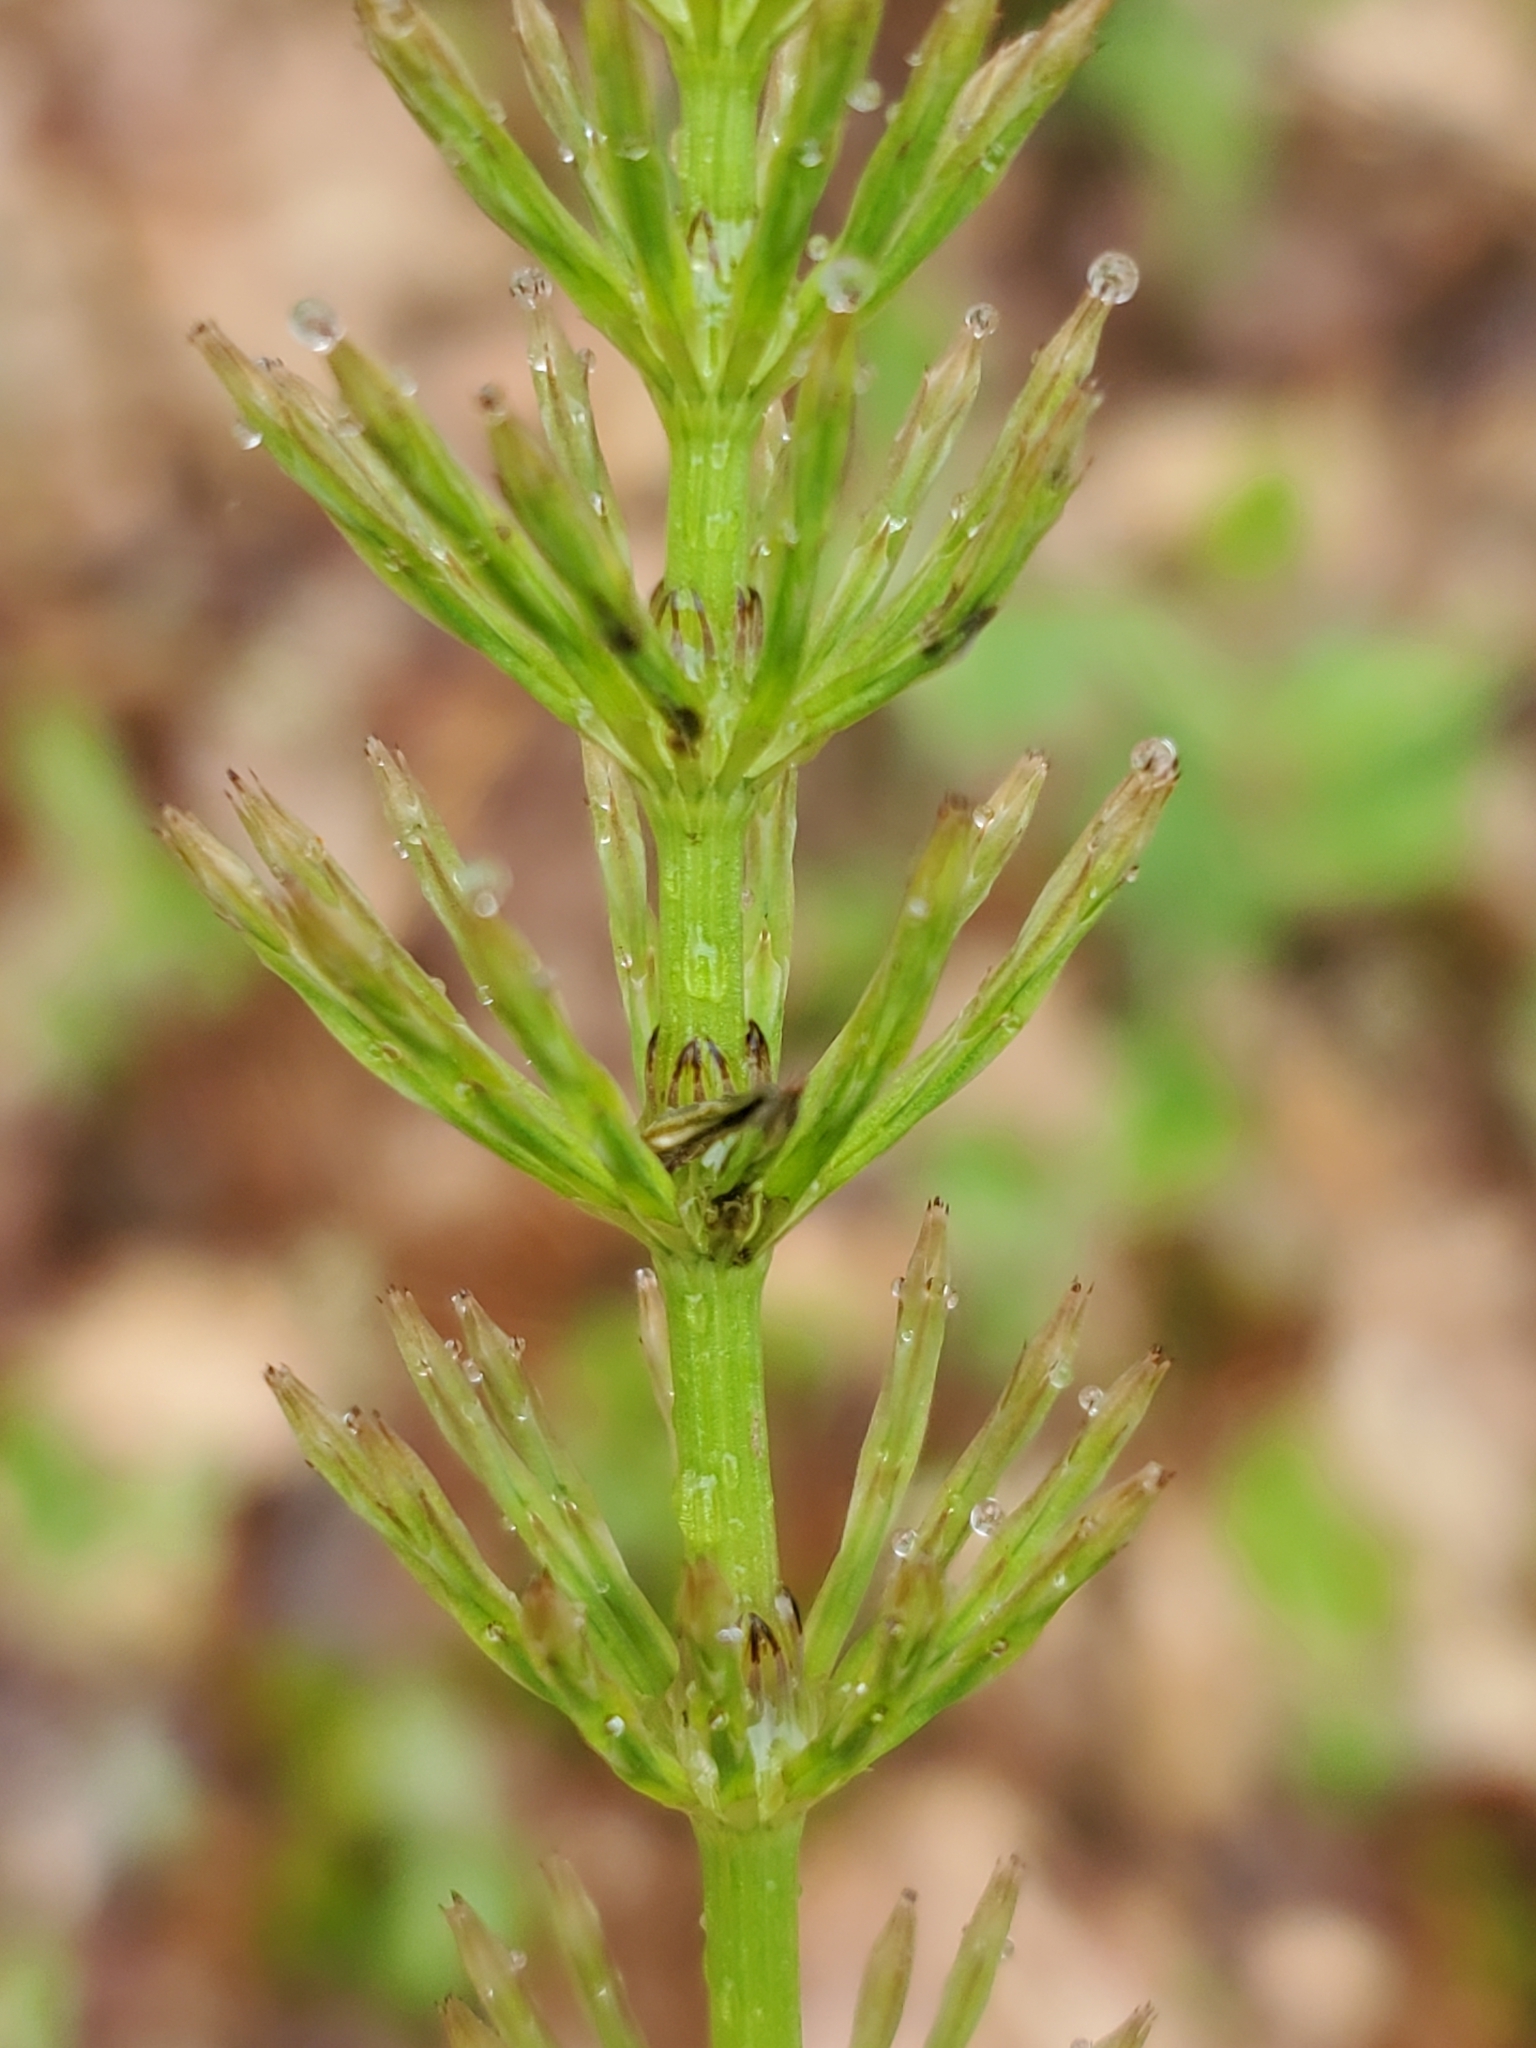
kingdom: Plantae
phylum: Tracheophyta
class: Polypodiopsida
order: Equisetales
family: Equisetaceae
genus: Equisetum
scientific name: Equisetum arvense
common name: Field horsetail
